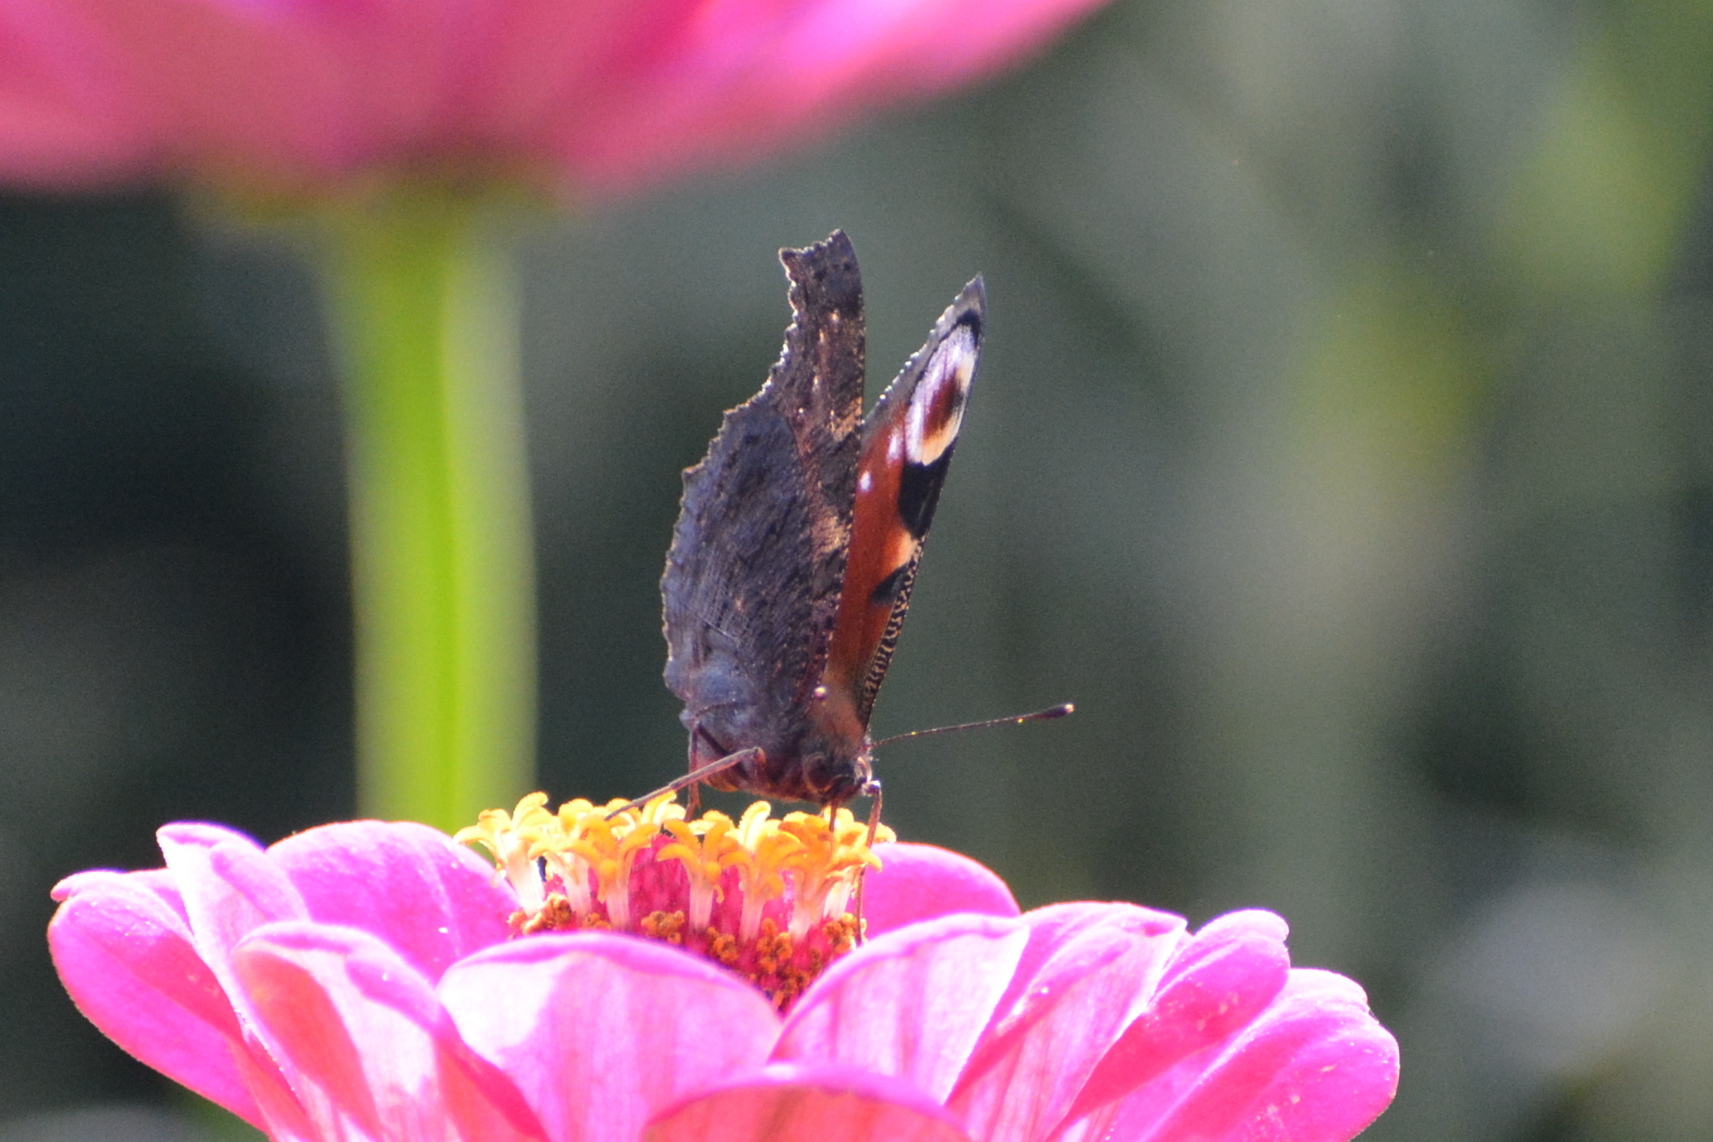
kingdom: Animalia
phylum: Arthropoda
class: Insecta
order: Lepidoptera
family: Nymphalidae
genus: Aglais
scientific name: Aglais io
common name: Peacock
